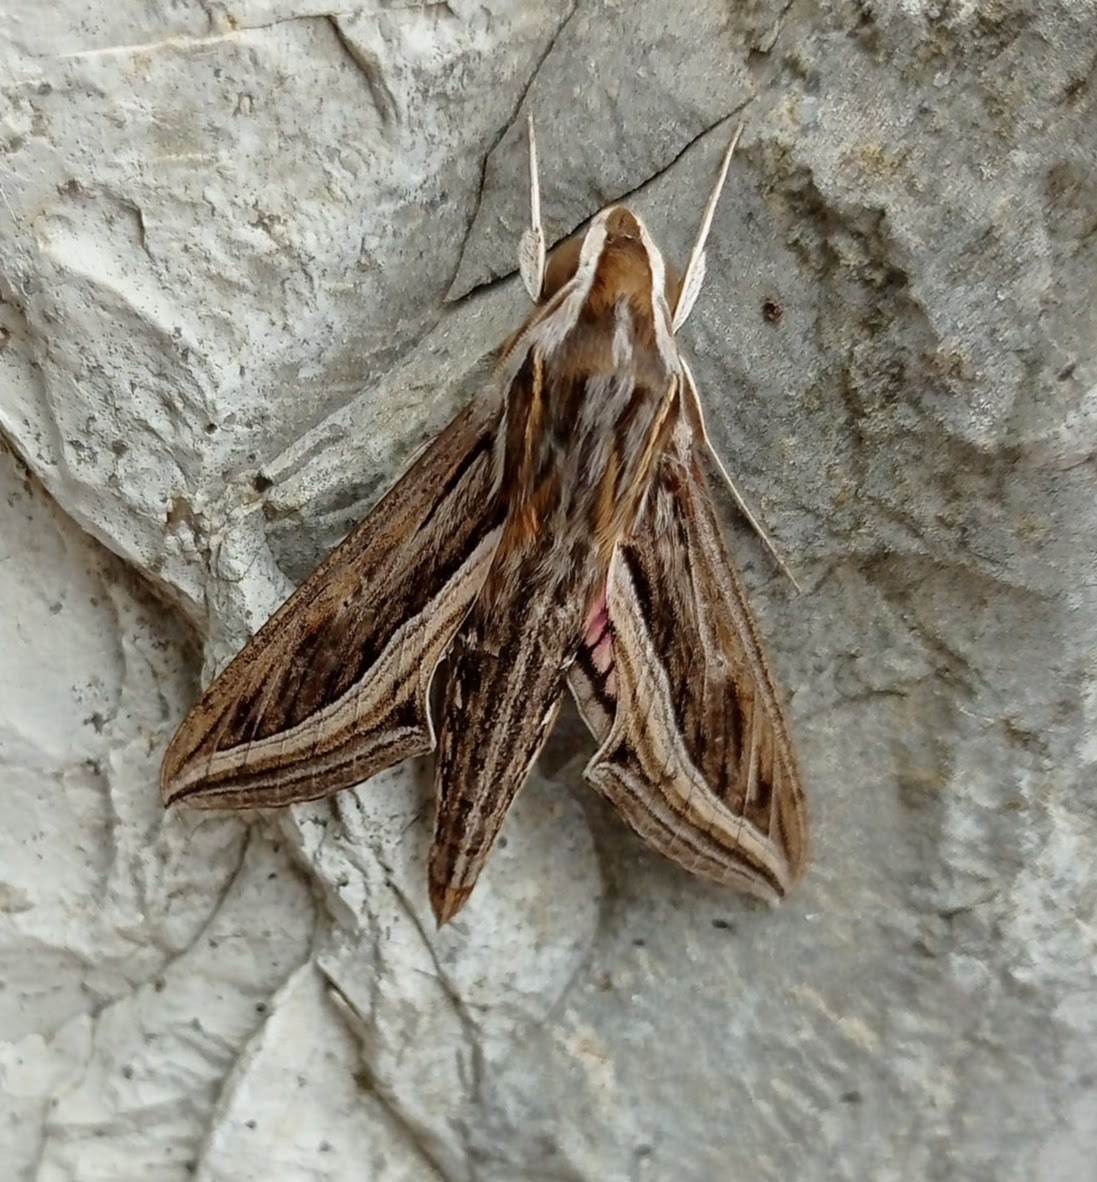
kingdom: Animalia
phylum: Arthropoda
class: Insecta
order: Lepidoptera
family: Sphingidae
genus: Hippotion
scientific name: Hippotion celerio
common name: Silver-striped hawk-moth
